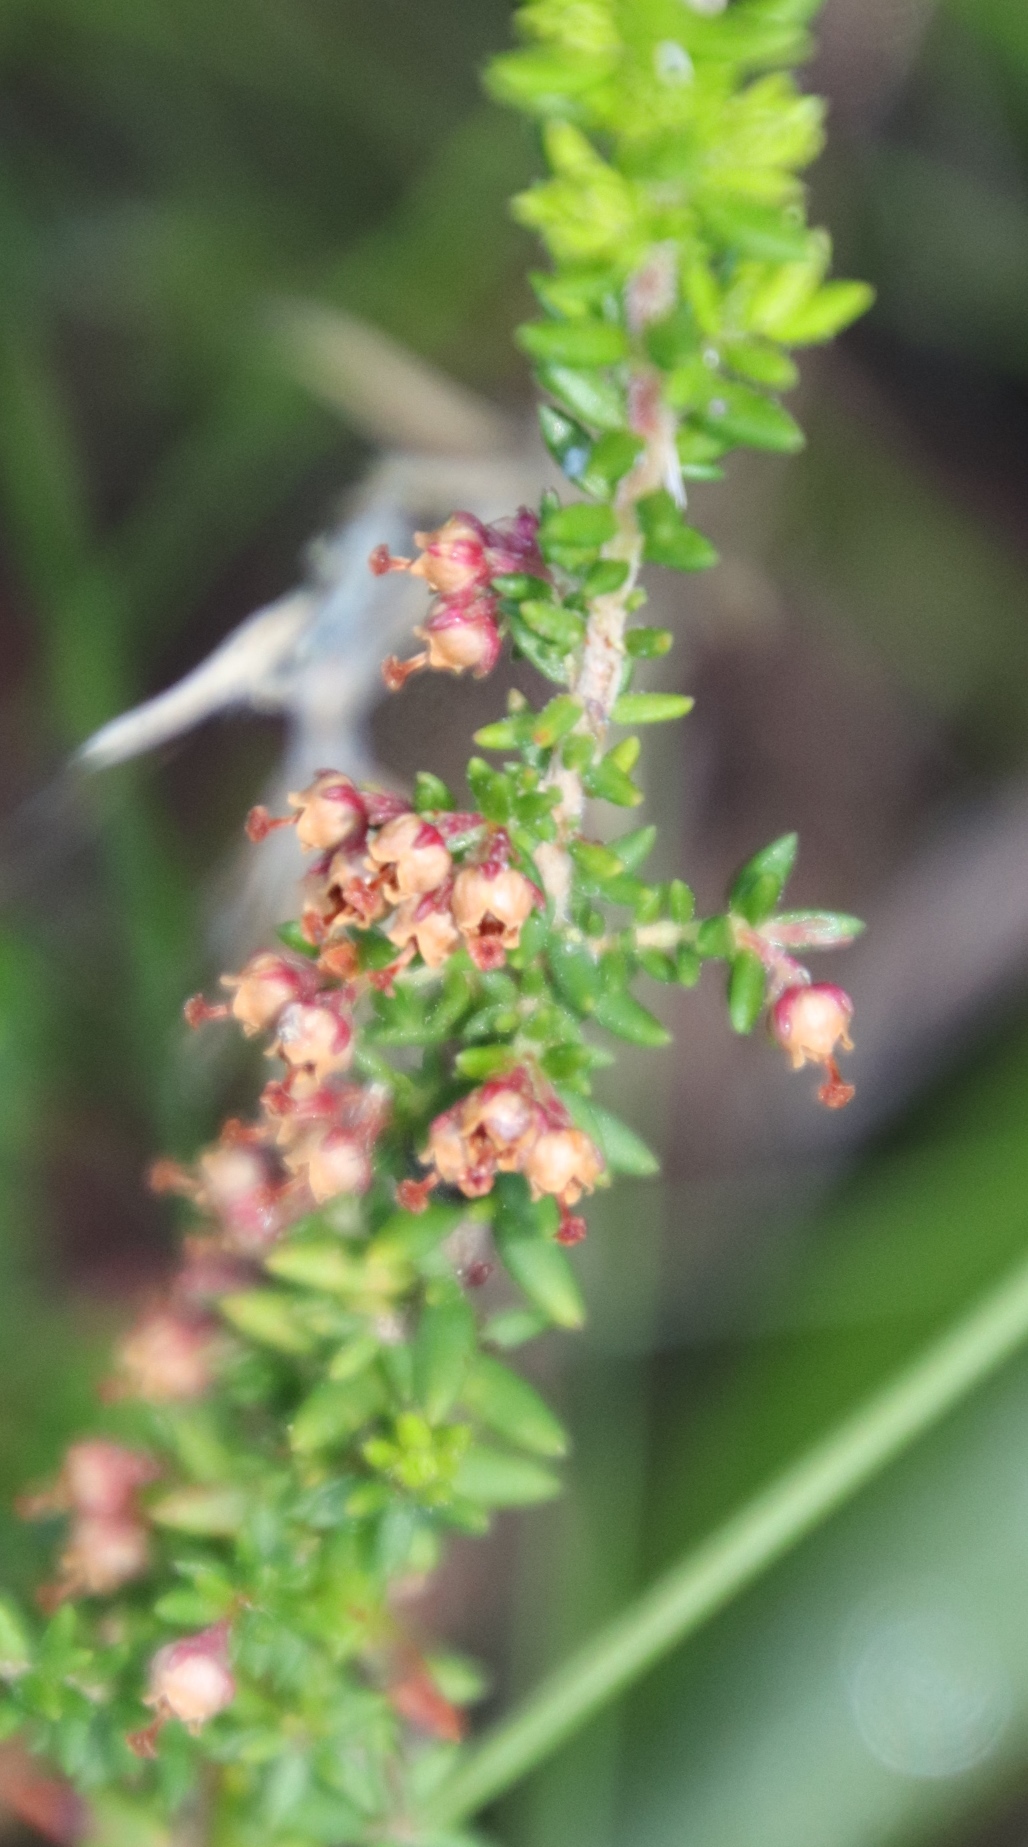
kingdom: Plantae
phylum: Tracheophyta
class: Magnoliopsida
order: Ericales
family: Ericaceae
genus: Erica
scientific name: Erica hispidula
